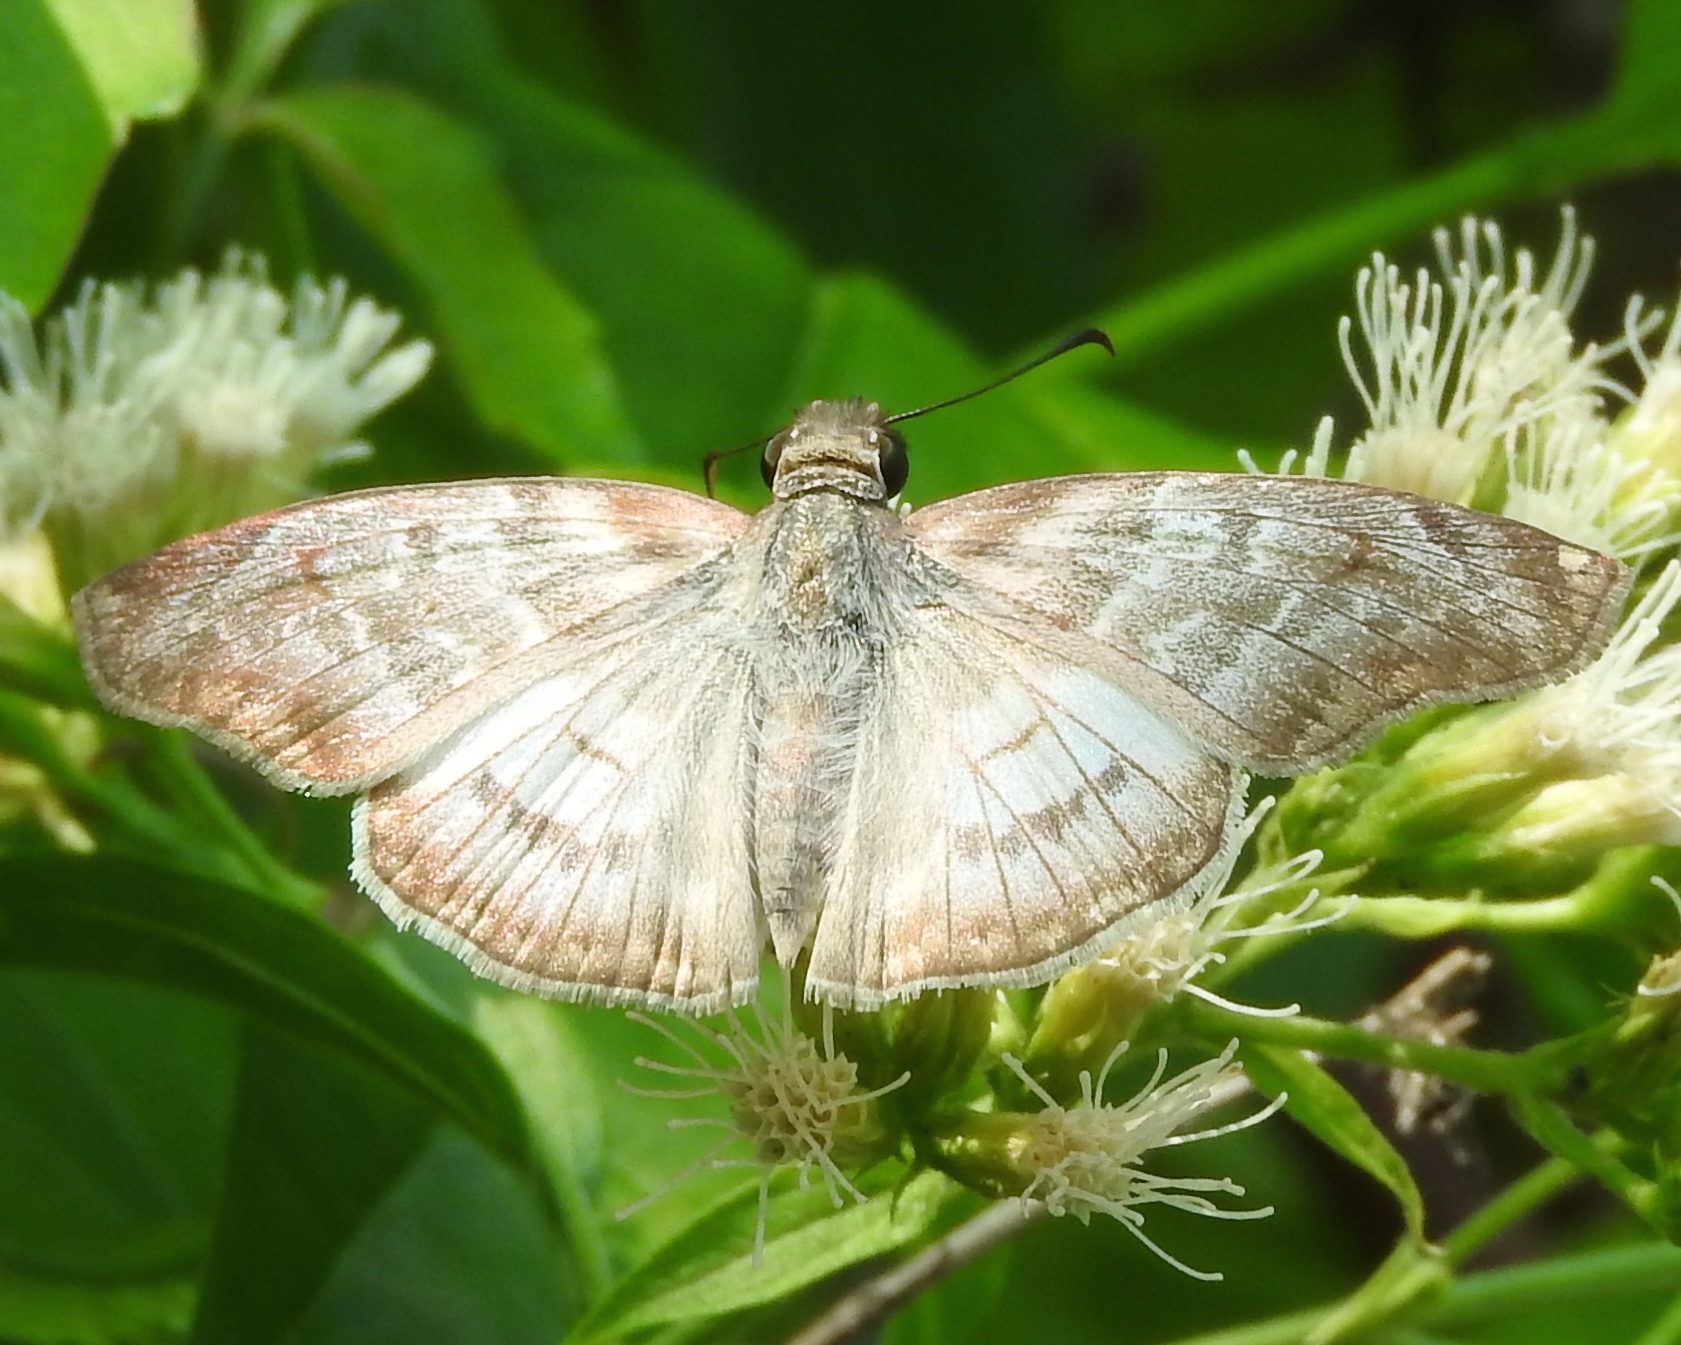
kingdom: Animalia
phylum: Arthropoda
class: Insecta
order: Lepidoptera
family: Hesperiidae
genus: Mylon
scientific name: Mylon pelopidas
